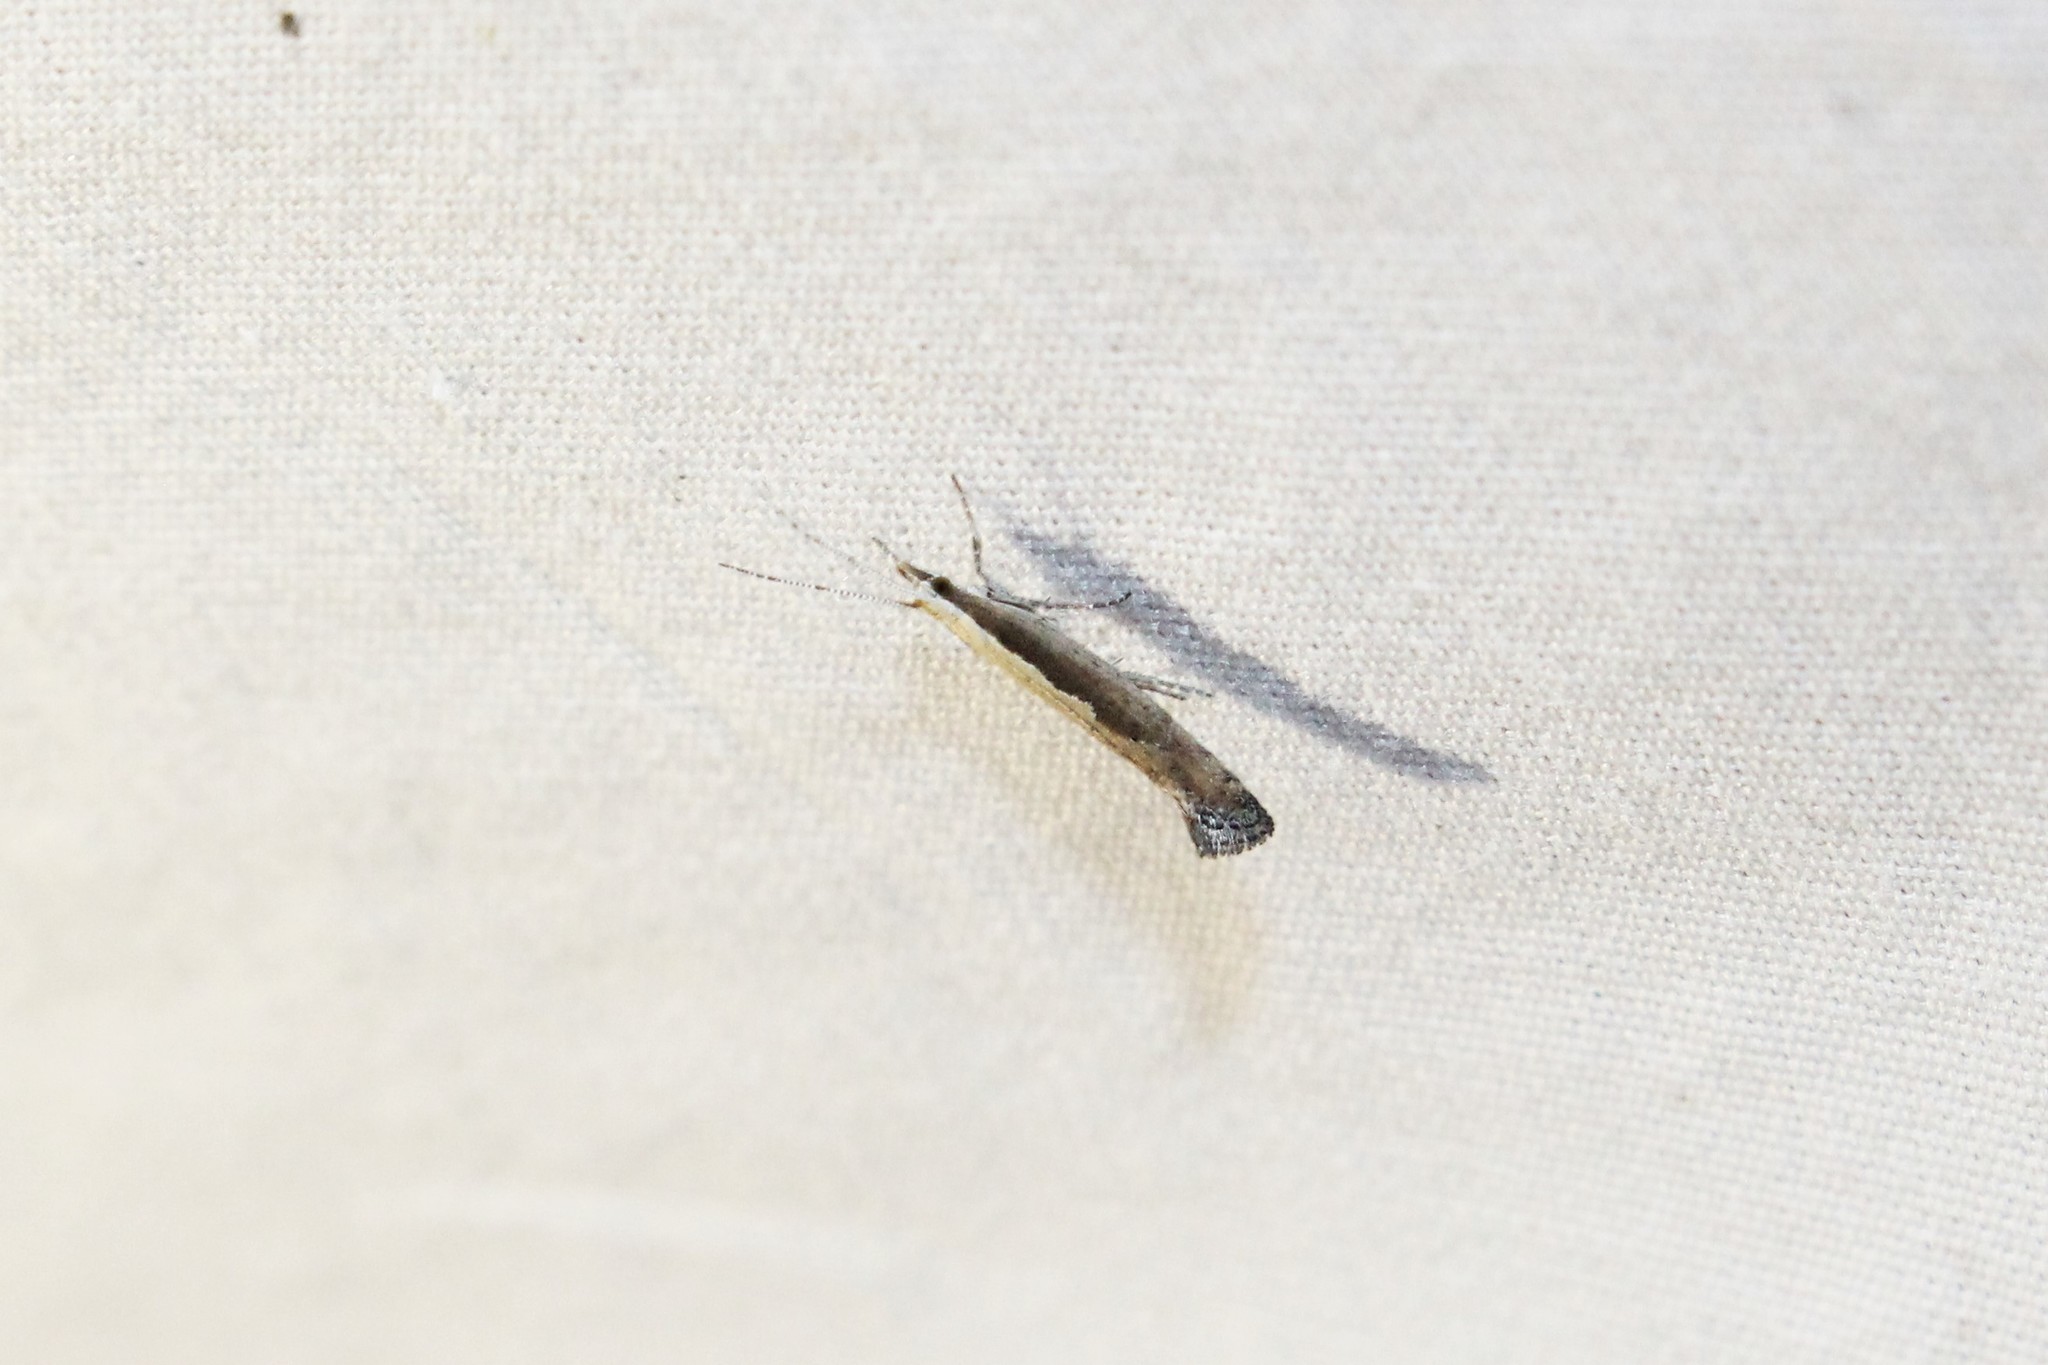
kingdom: Animalia
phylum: Arthropoda
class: Insecta
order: Lepidoptera
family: Plutellidae
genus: Plutella
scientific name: Plutella xylostella
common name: Diamond-back moth
